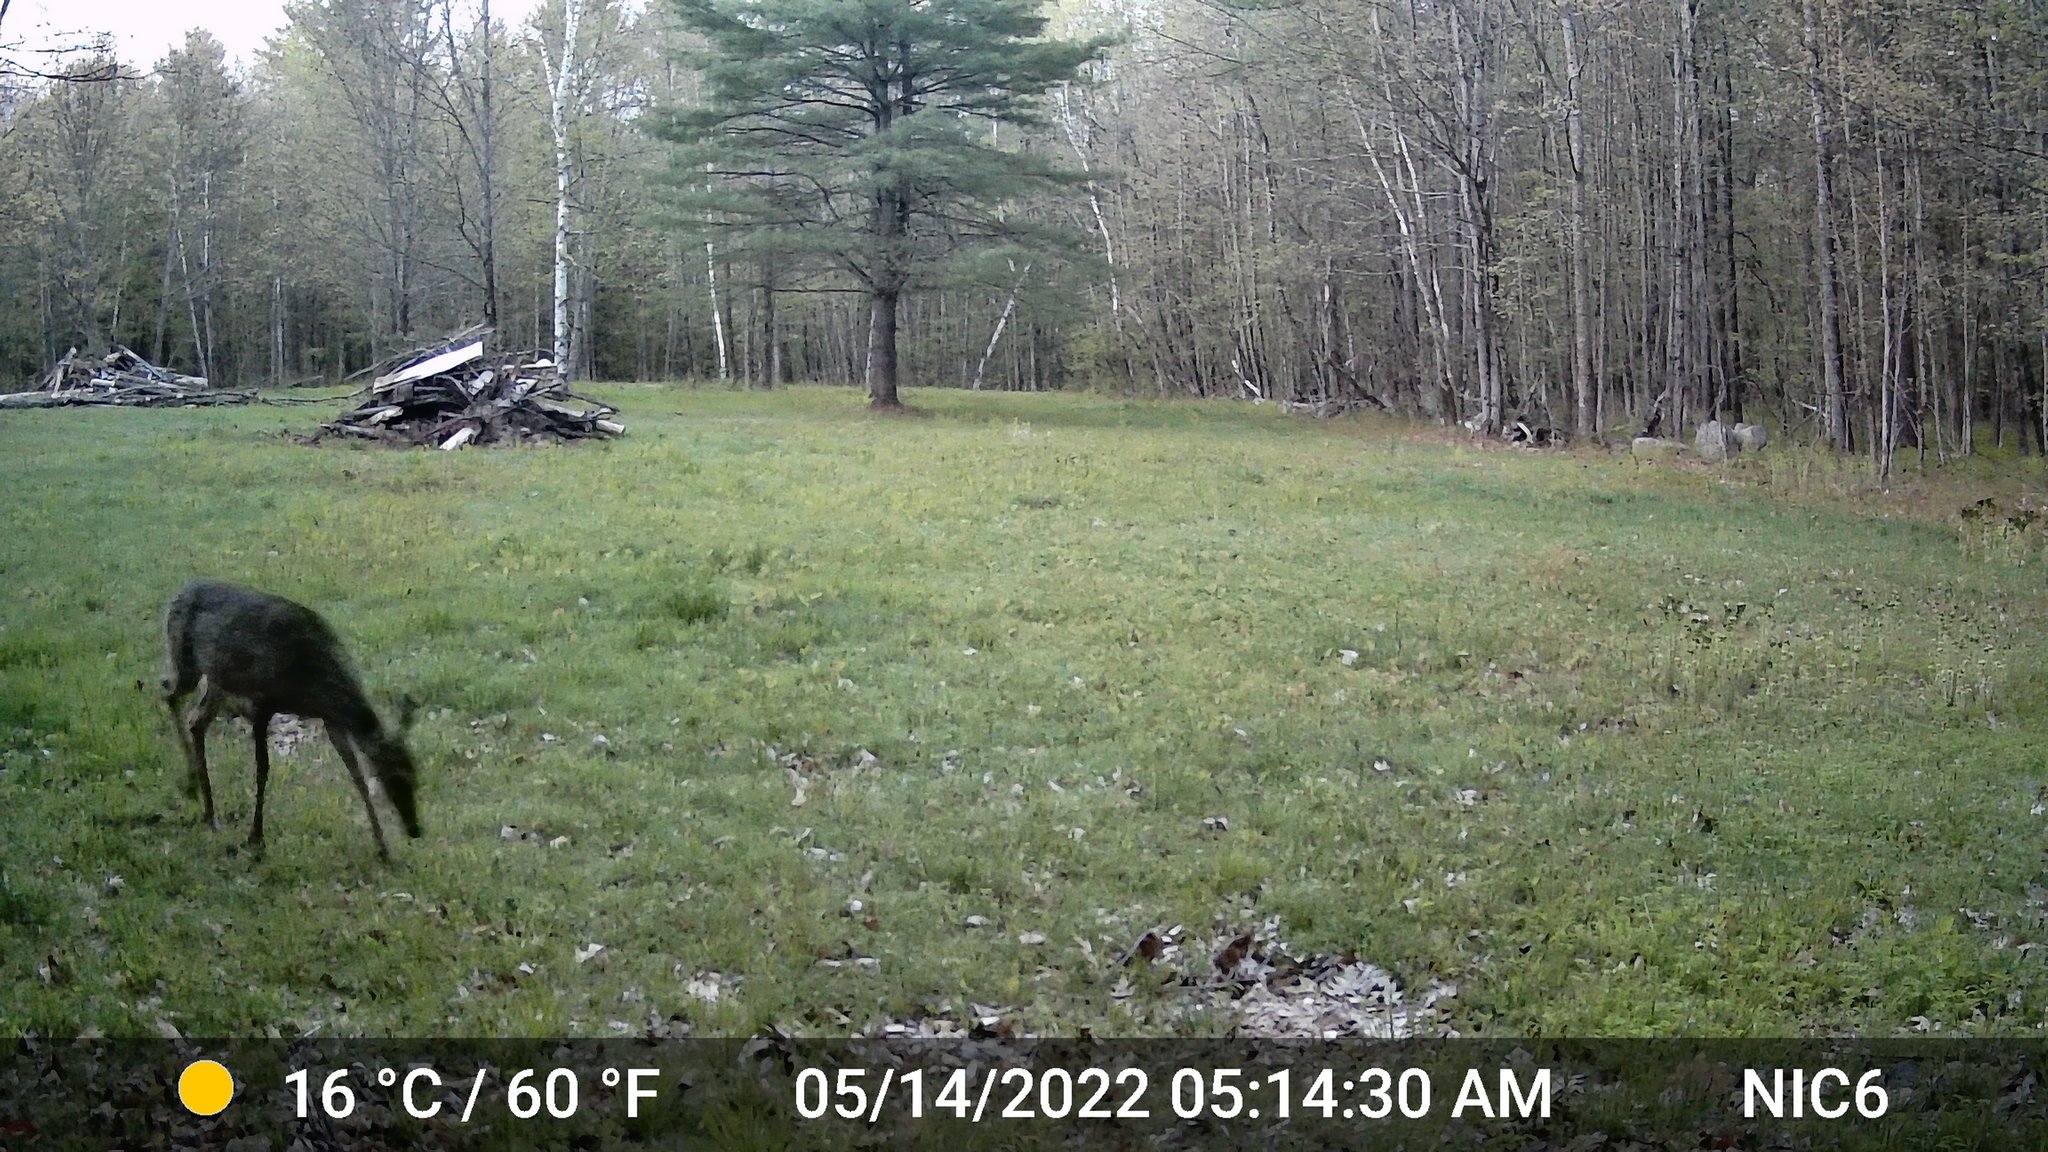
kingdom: Animalia
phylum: Chordata
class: Mammalia
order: Artiodactyla
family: Cervidae
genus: Odocoileus
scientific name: Odocoileus virginianus
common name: White-tailed deer
